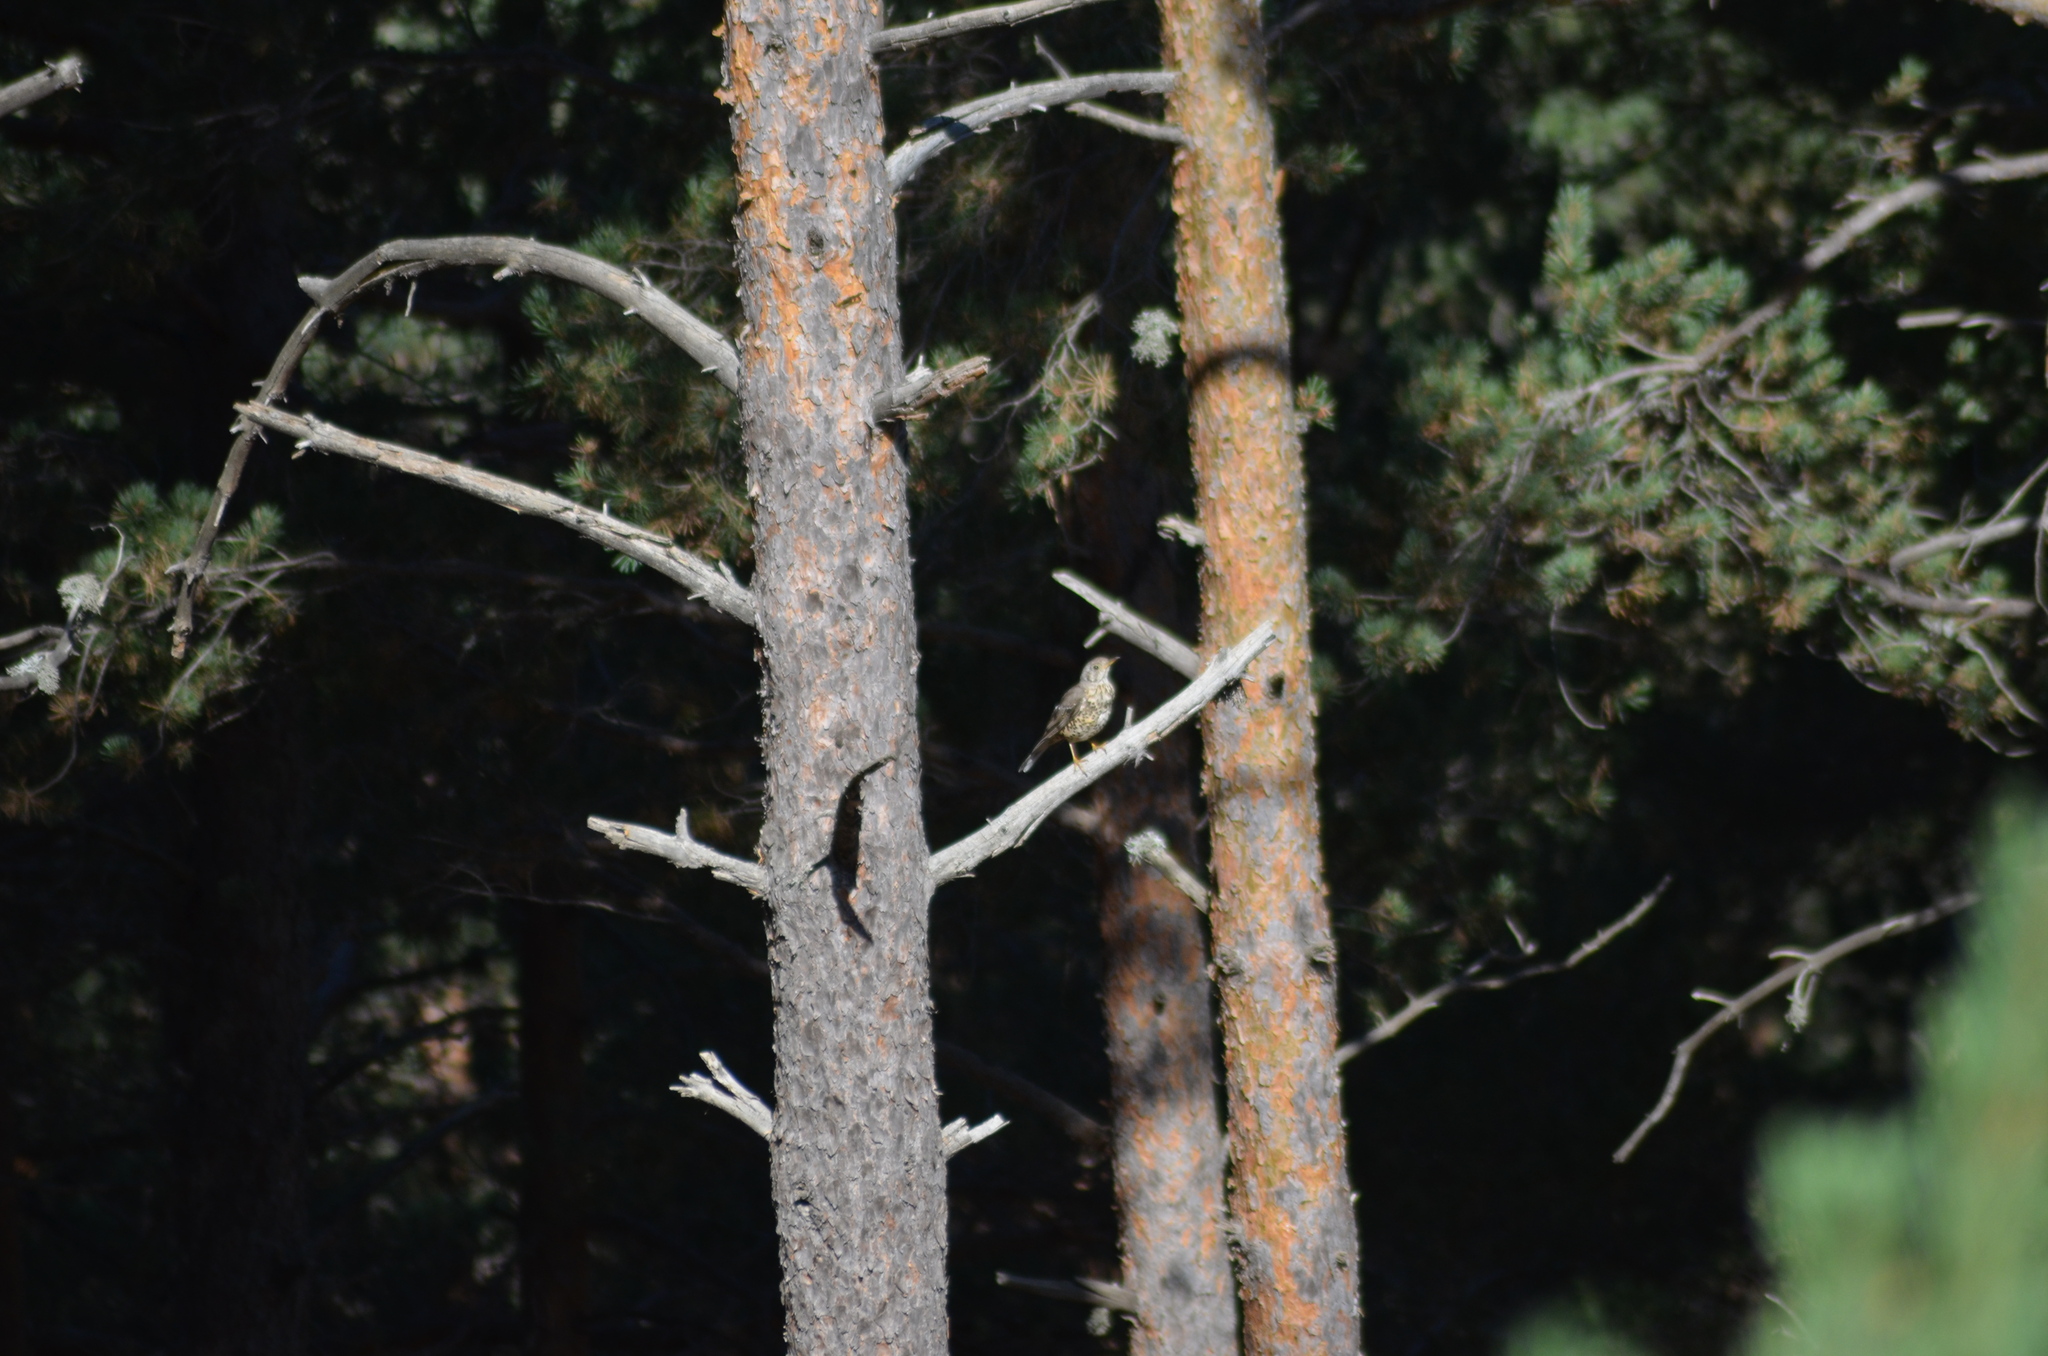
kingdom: Animalia
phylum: Chordata
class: Aves
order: Passeriformes
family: Turdidae
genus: Turdus
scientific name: Turdus viscivorus
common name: Mistle thrush
